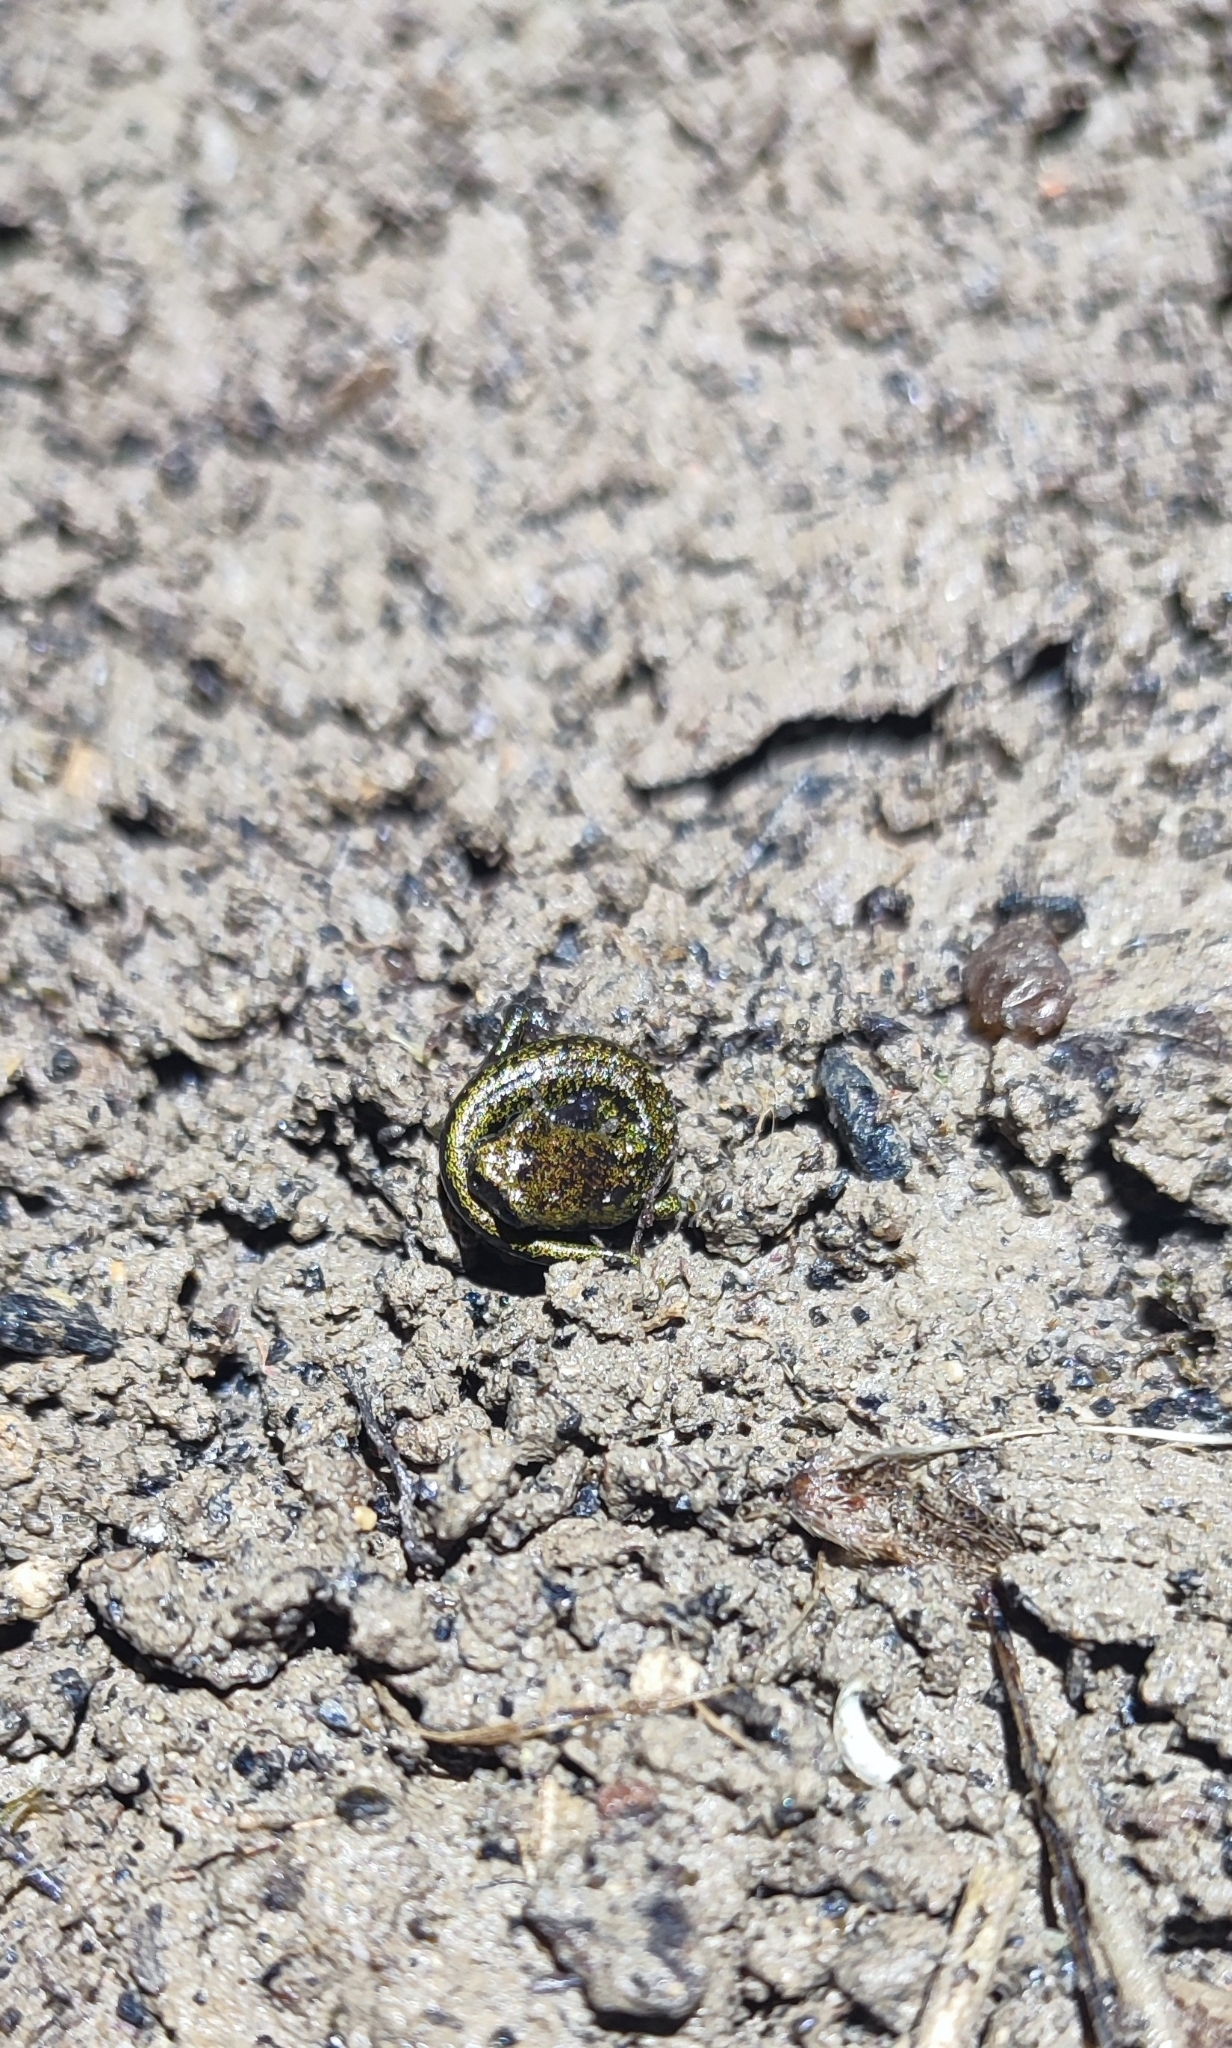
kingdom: Animalia
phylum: Chordata
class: Amphibia
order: Caudata
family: Plethodontidae
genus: Speleomantes
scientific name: Speleomantes strinatii
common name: French cave salamander
